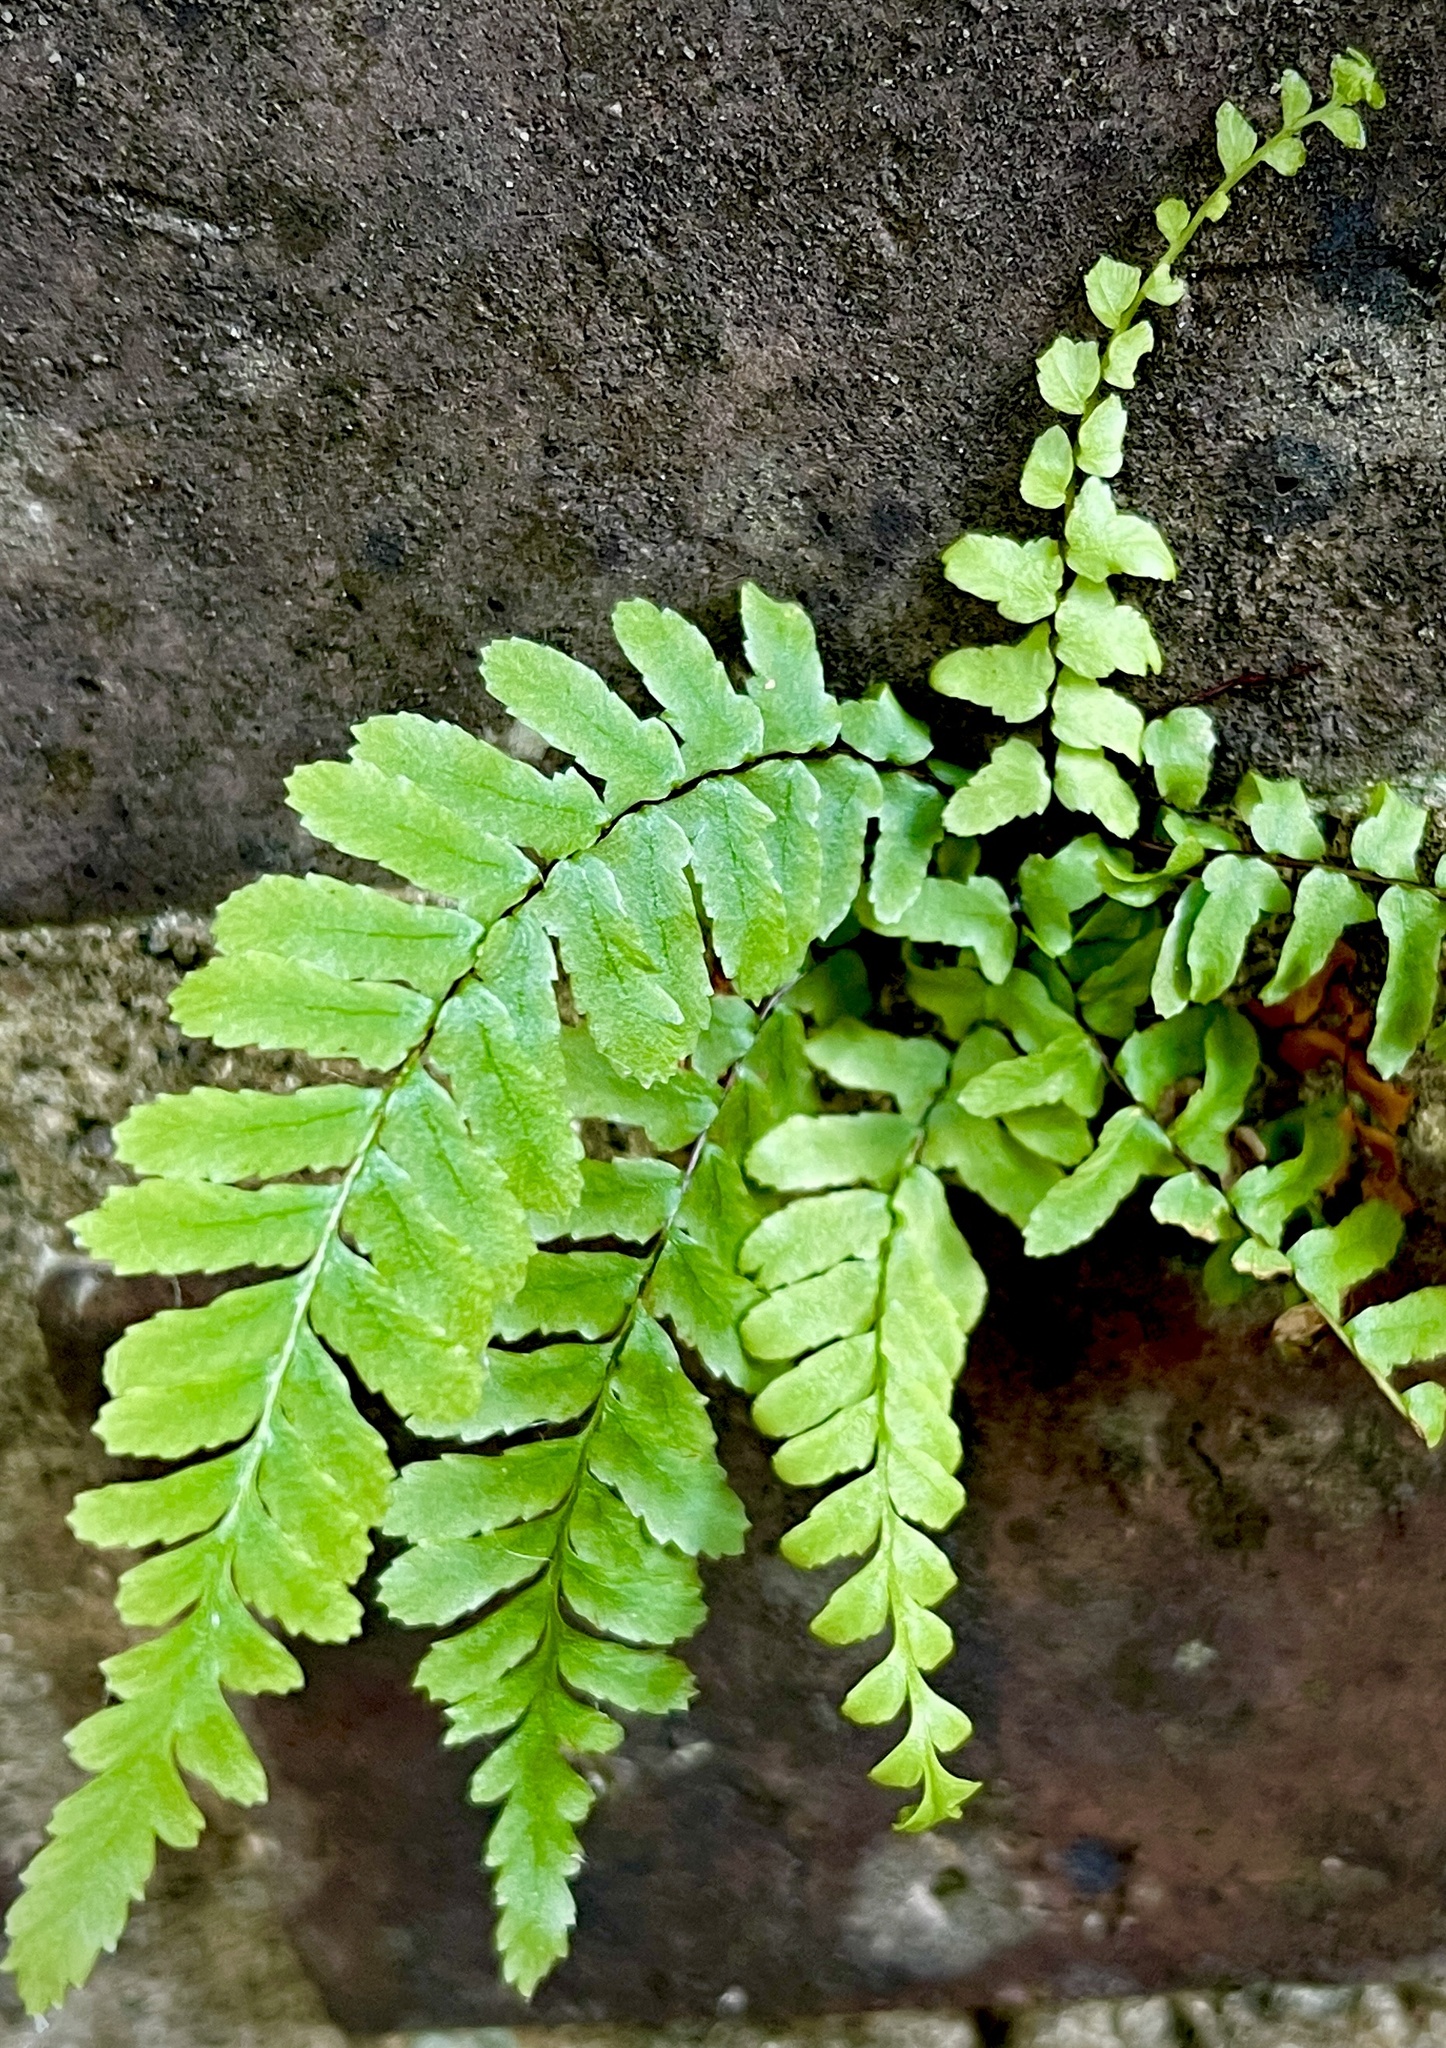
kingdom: Plantae
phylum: Tracheophyta
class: Polypodiopsida
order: Polypodiales
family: Aspleniaceae
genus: Asplenium
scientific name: Asplenium platyneuron
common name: Ebony spleenwort
